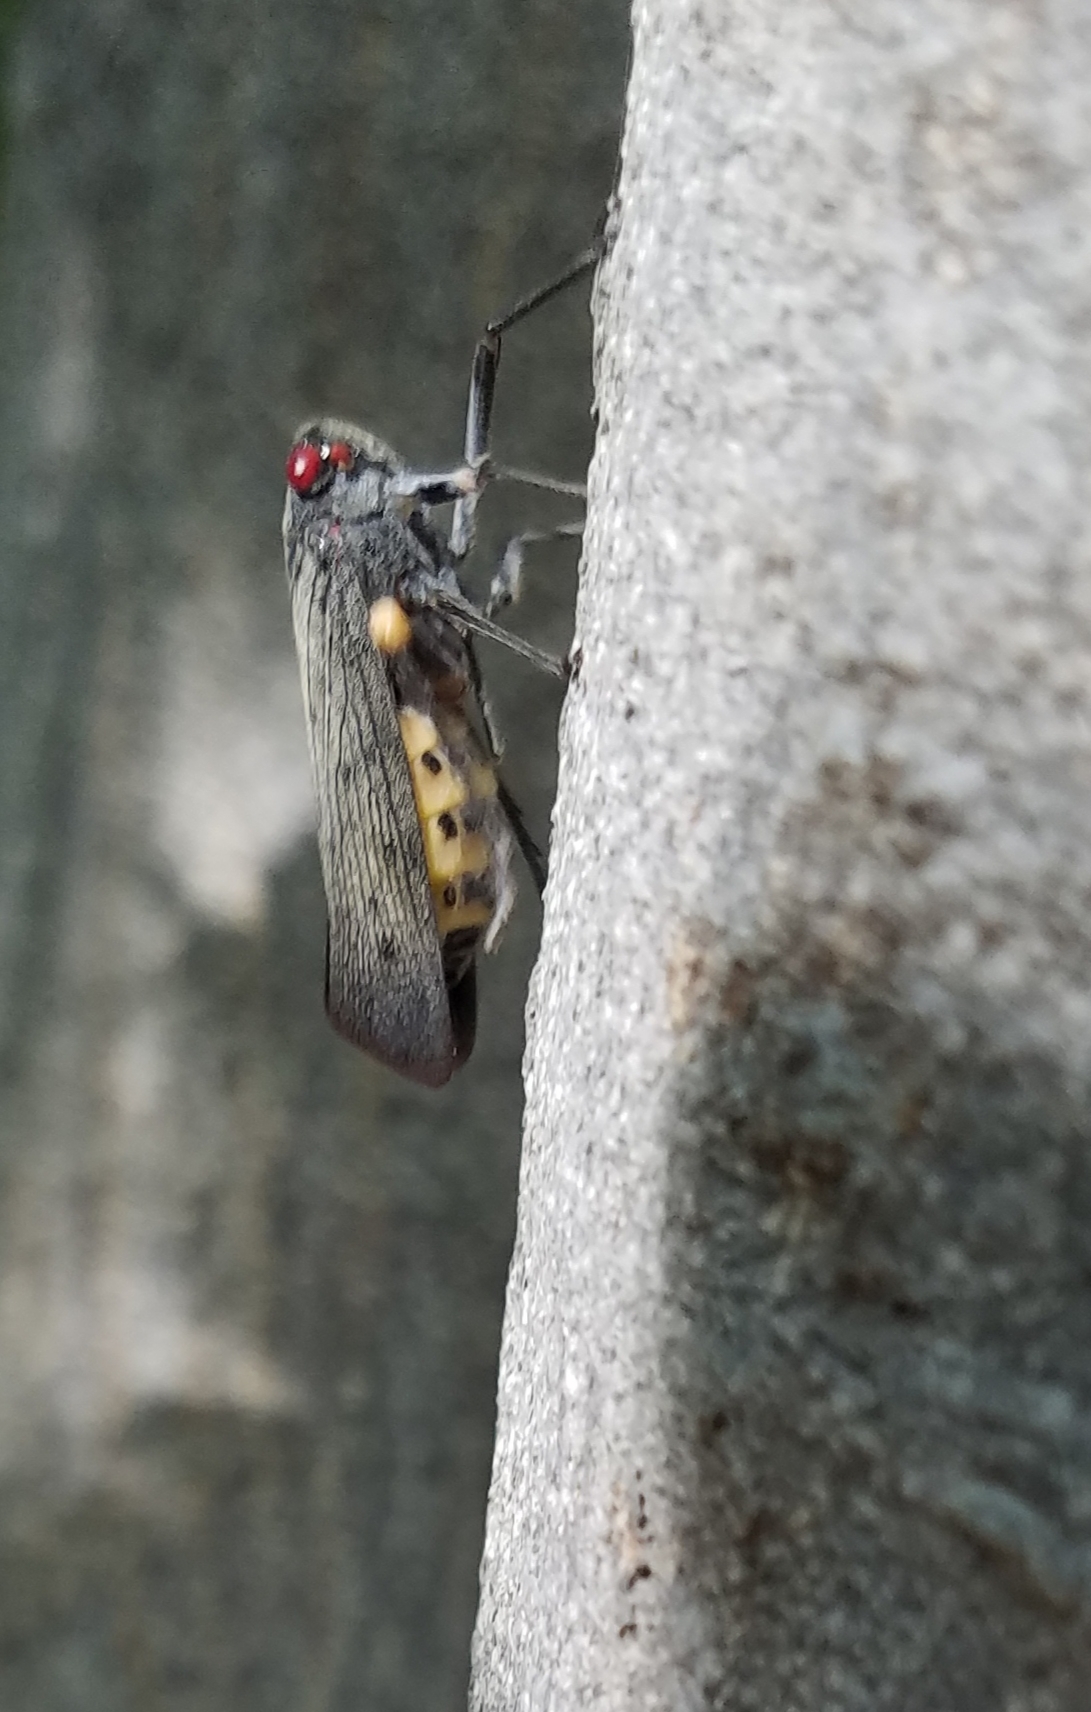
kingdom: Animalia
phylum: Arthropoda
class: Insecta
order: Hemiptera
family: Fulgoridae
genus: Acraephia
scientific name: Acraephia perspicillata
